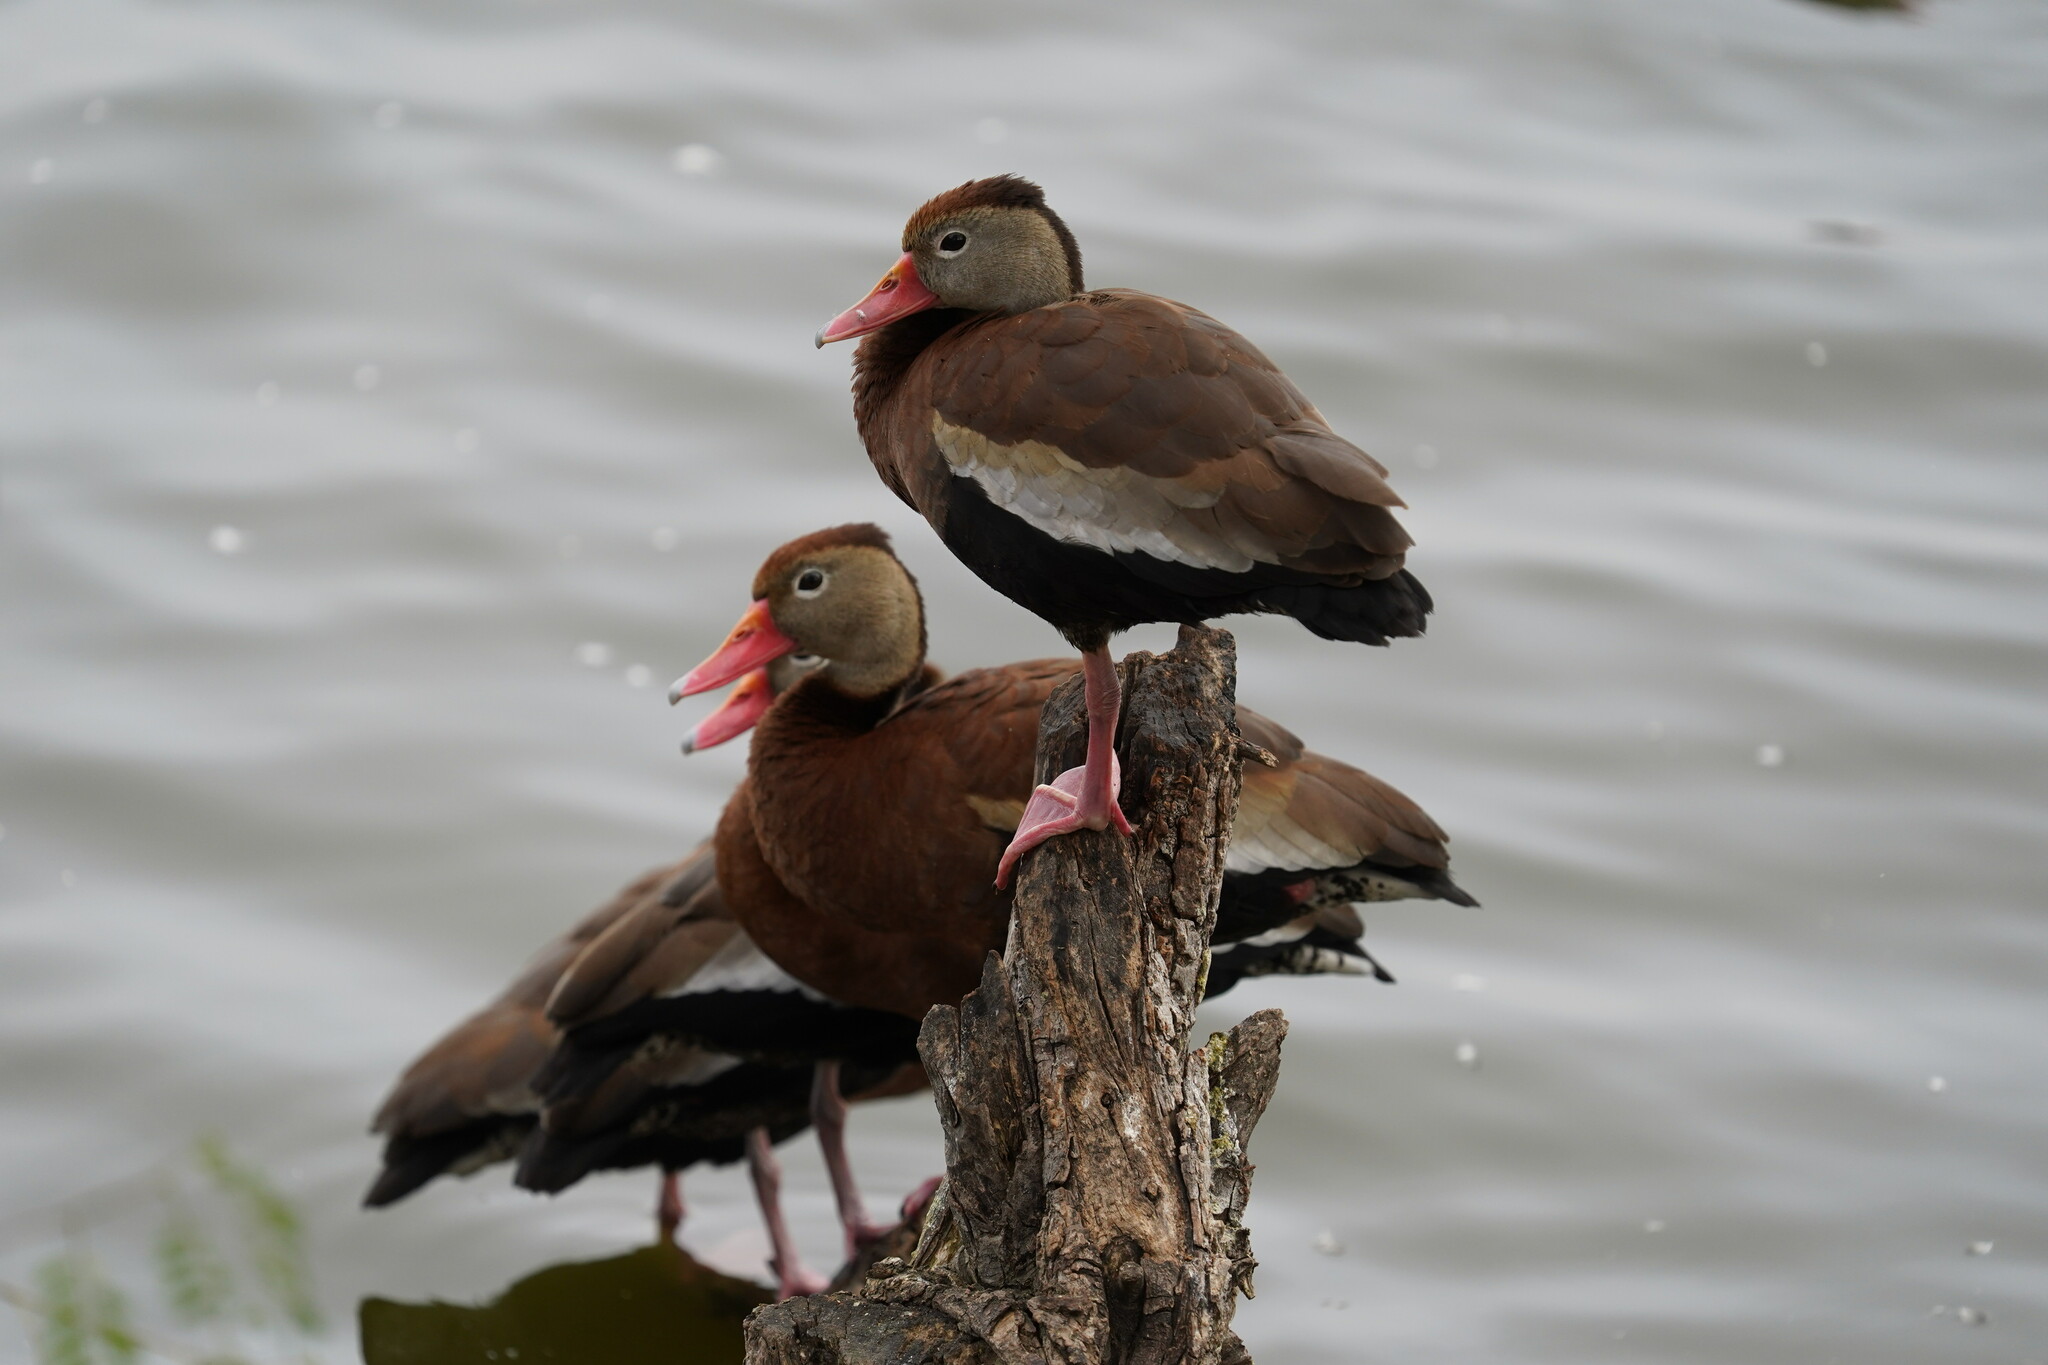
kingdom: Animalia
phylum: Chordata
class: Aves
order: Anseriformes
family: Anatidae
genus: Dendrocygna
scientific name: Dendrocygna autumnalis
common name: Black-bellied whistling duck
